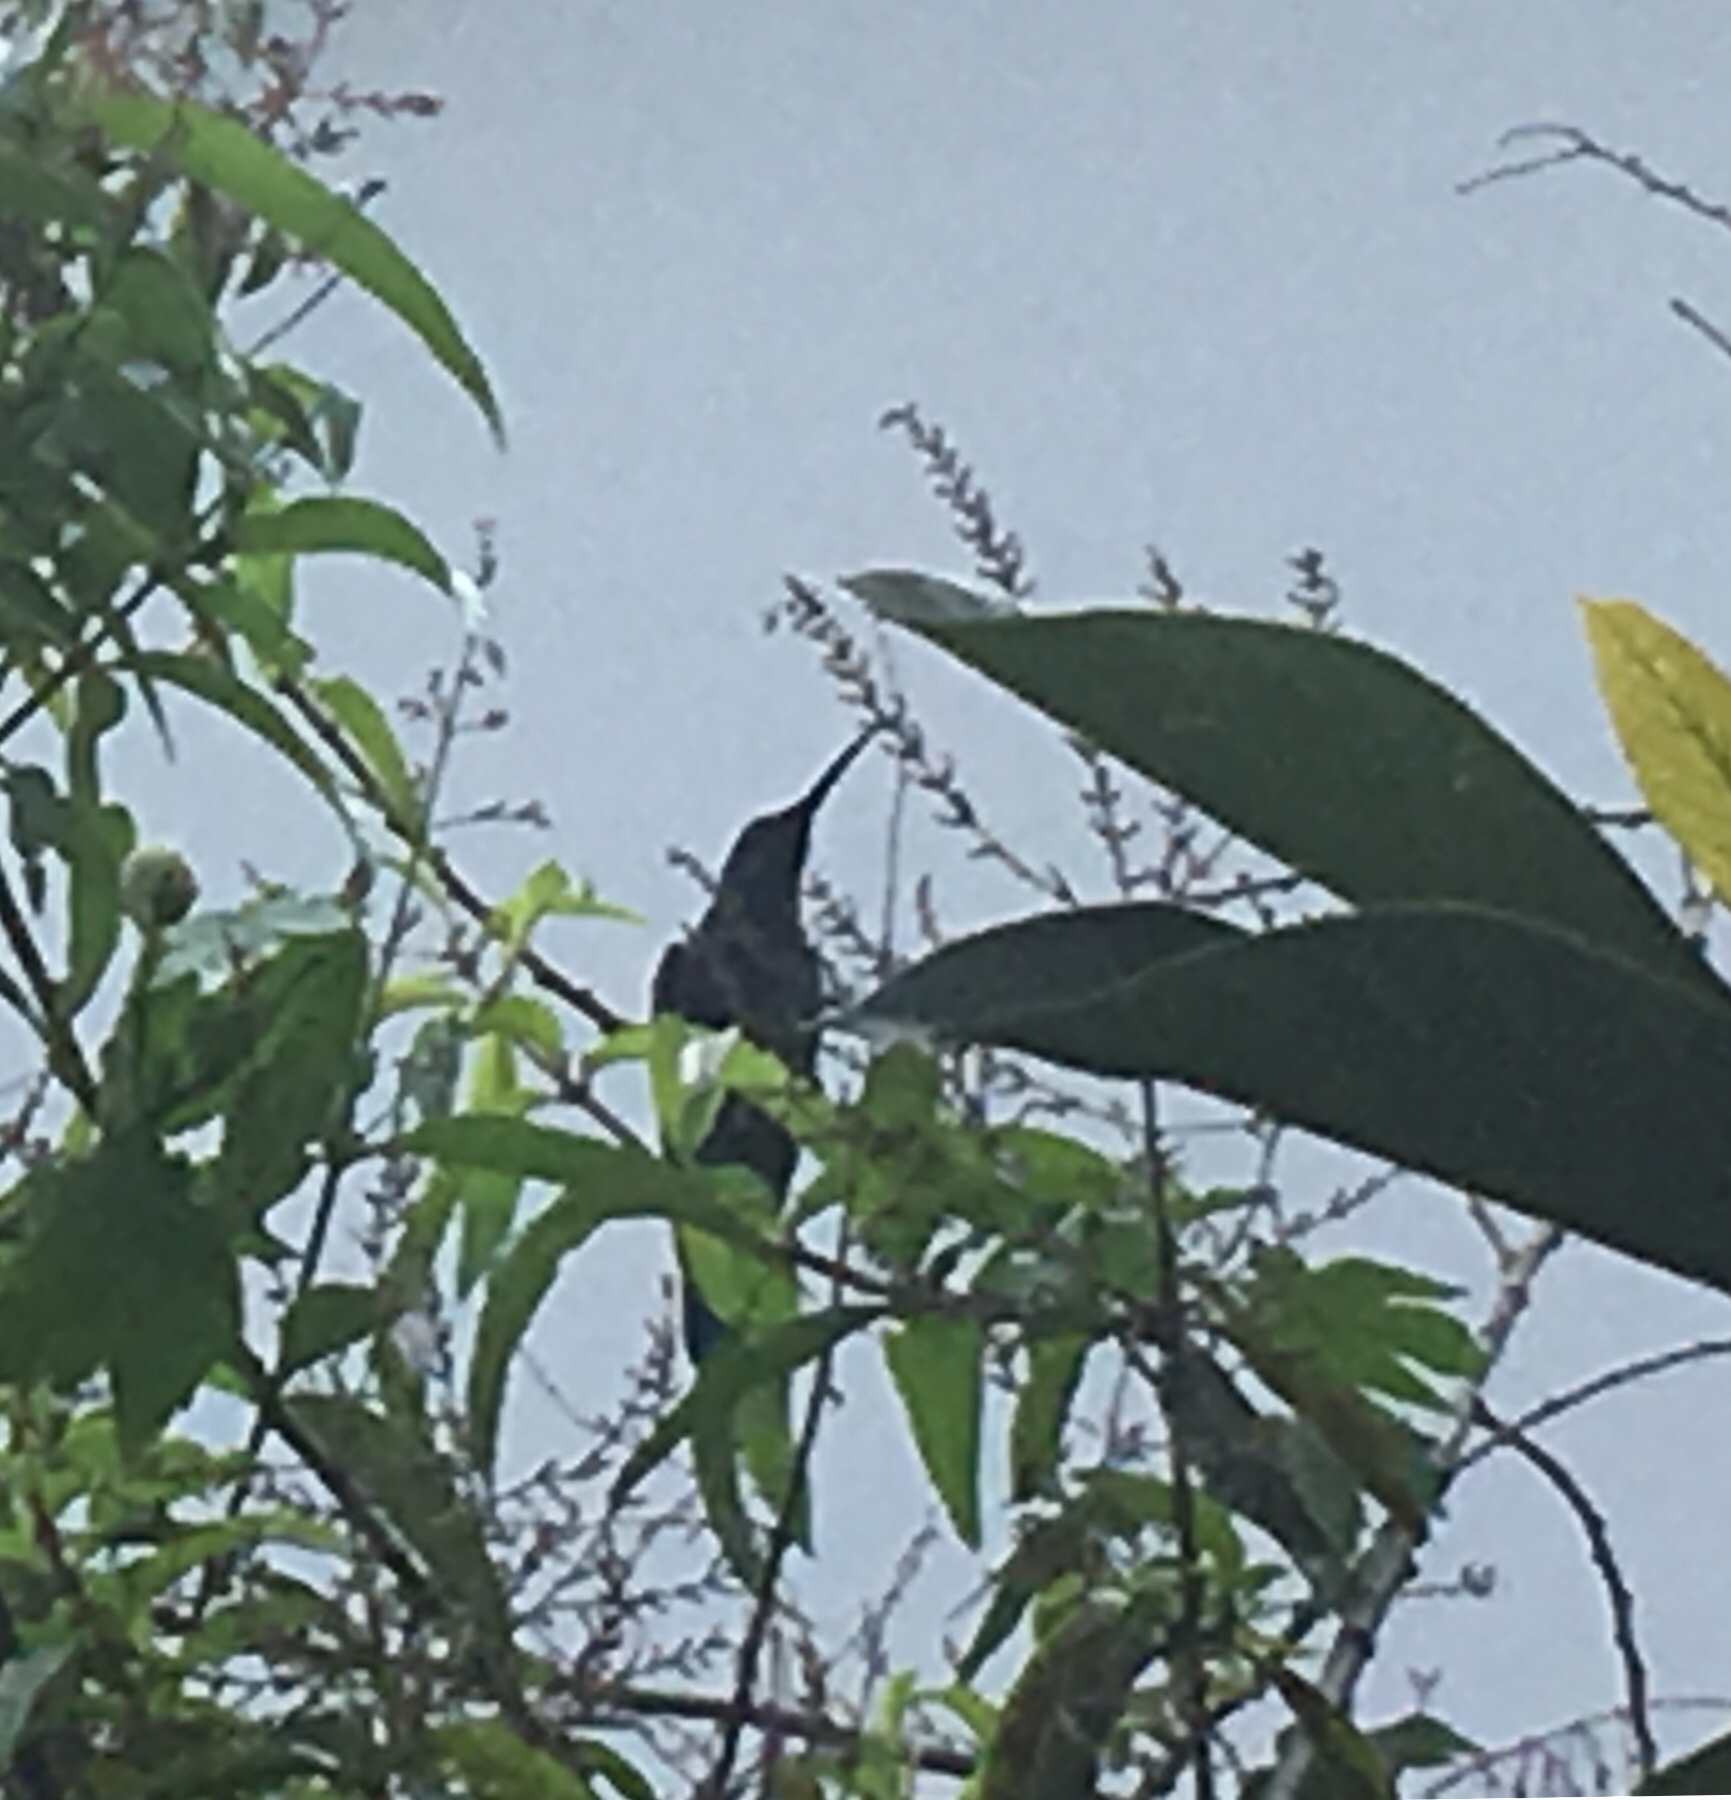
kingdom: Animalia
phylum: Chordata
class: Aves
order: Apodiformes
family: Trochilidae
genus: Colibri
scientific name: Colibri coruscans
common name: Sparkling violetear
